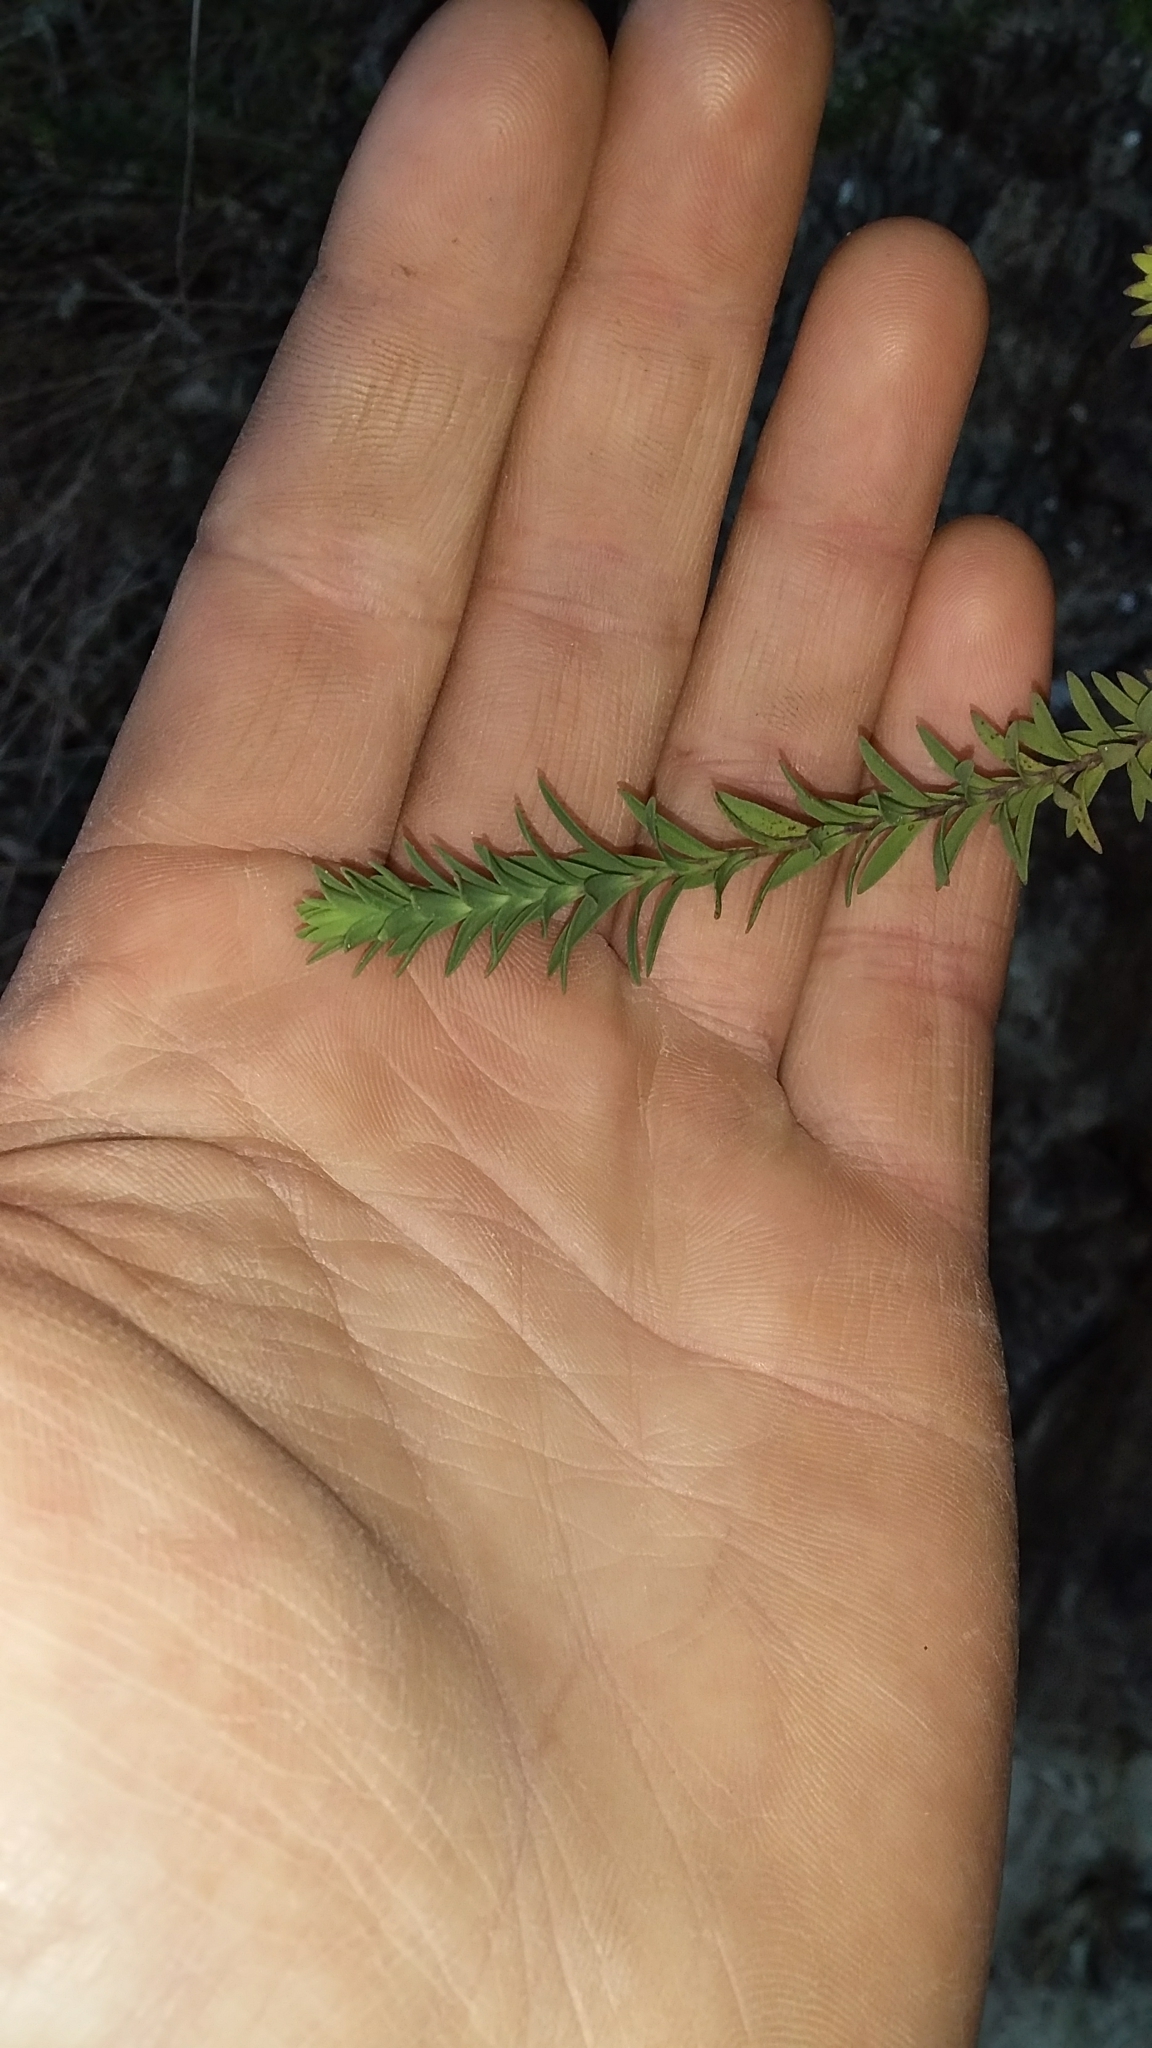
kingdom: Plantae
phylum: Tracheophyta
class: Magnoliopsida
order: Malpighiales
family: Linaceae
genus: Linum
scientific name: Linum monogynum
